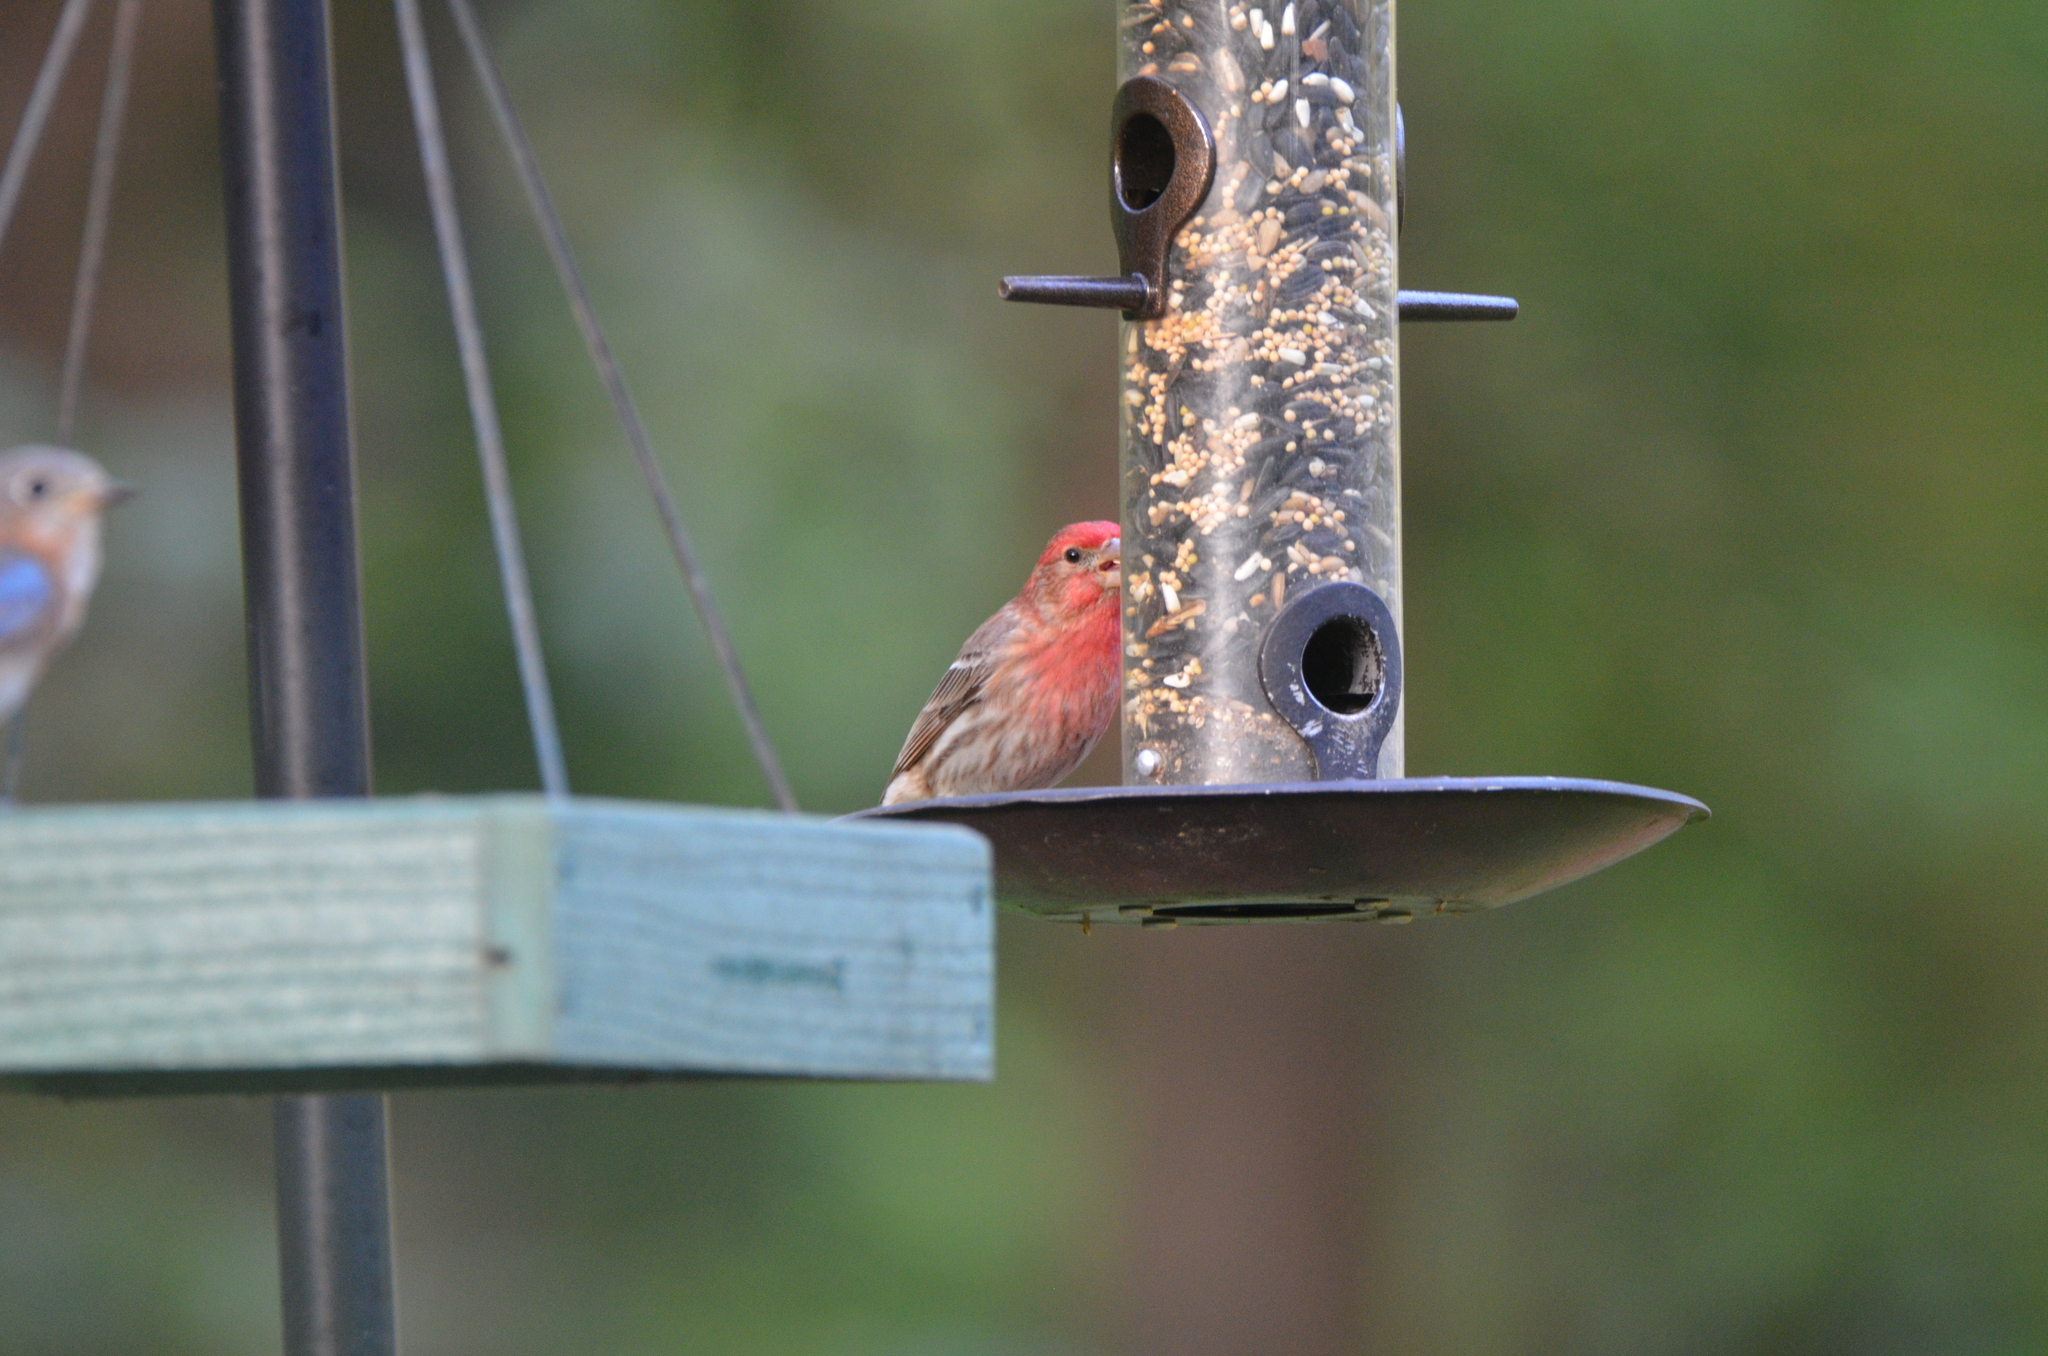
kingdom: Animalia
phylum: Chordata
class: Aves
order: Passeriformes
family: Fringillidae
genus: Haemorhous
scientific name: Haemorhous mexicanus
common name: House finch
